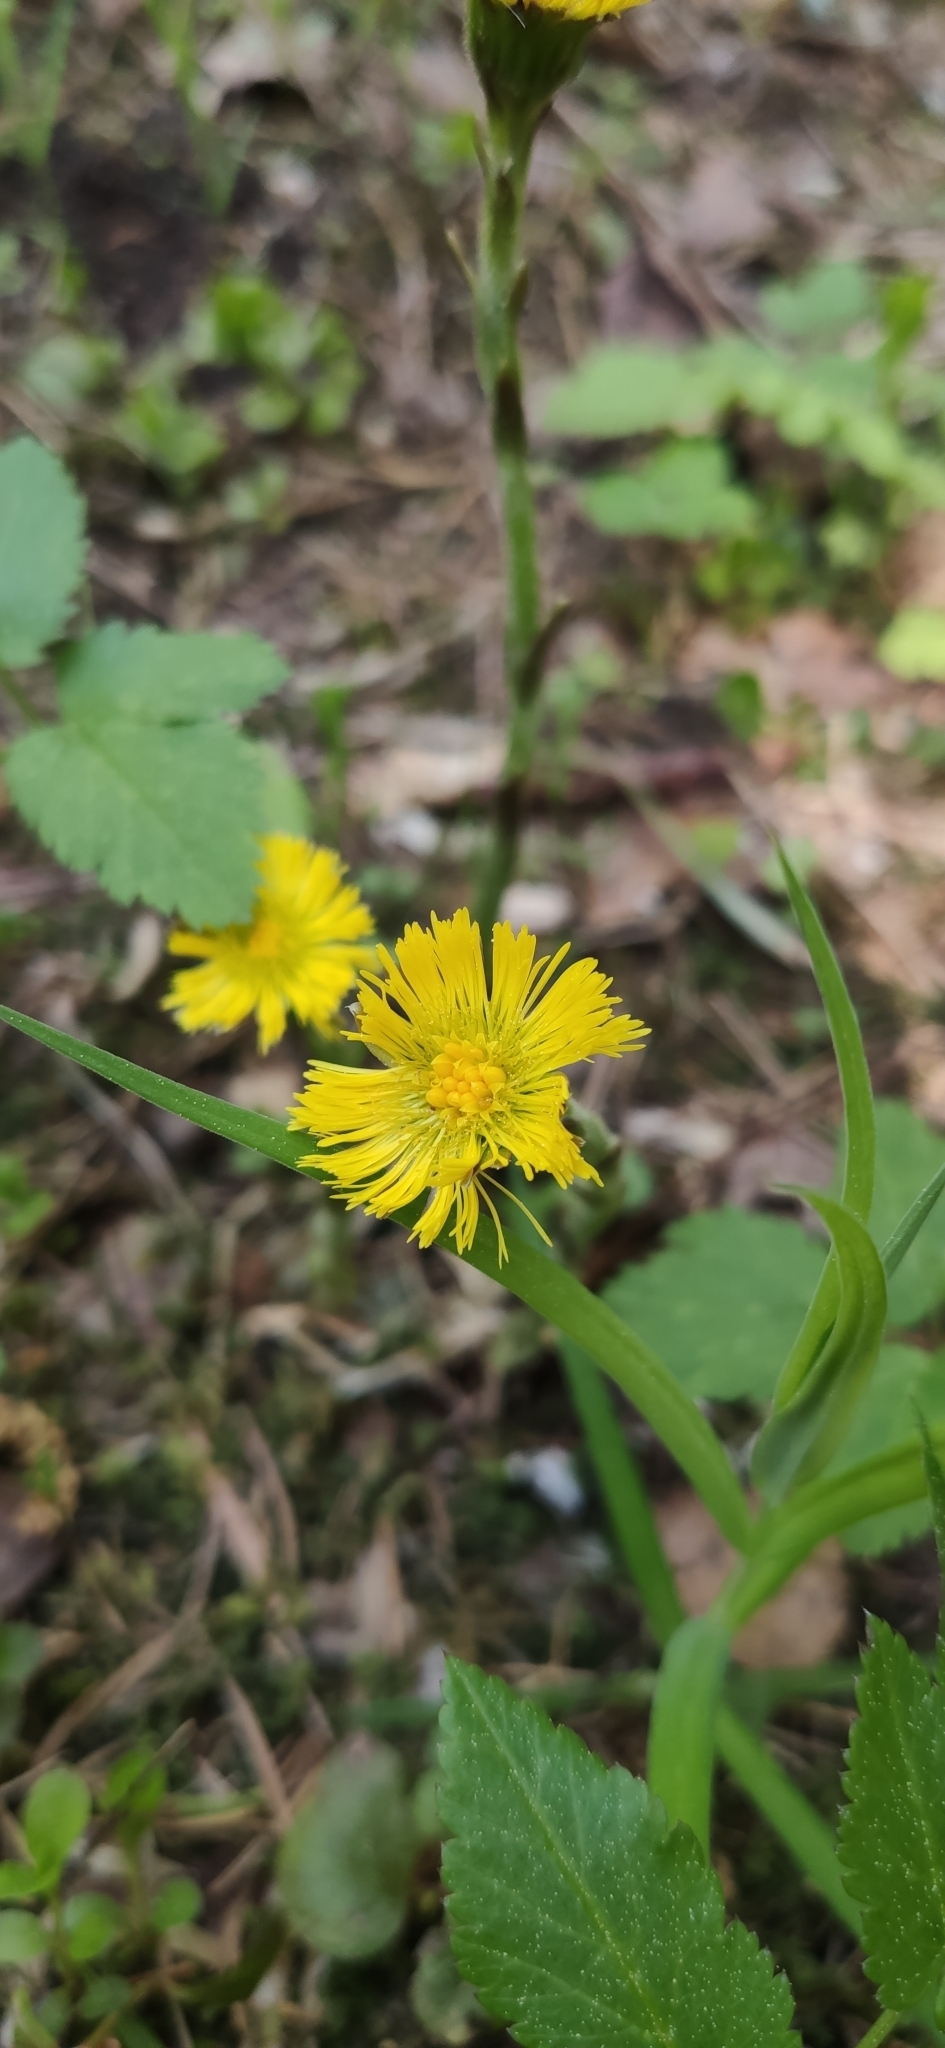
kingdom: Plantae
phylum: Tracheophyta
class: Magnoliopsida
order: Asterales
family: Asteraceae
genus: Tussilago
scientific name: Tussilago farfara
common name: Coltsfoot
